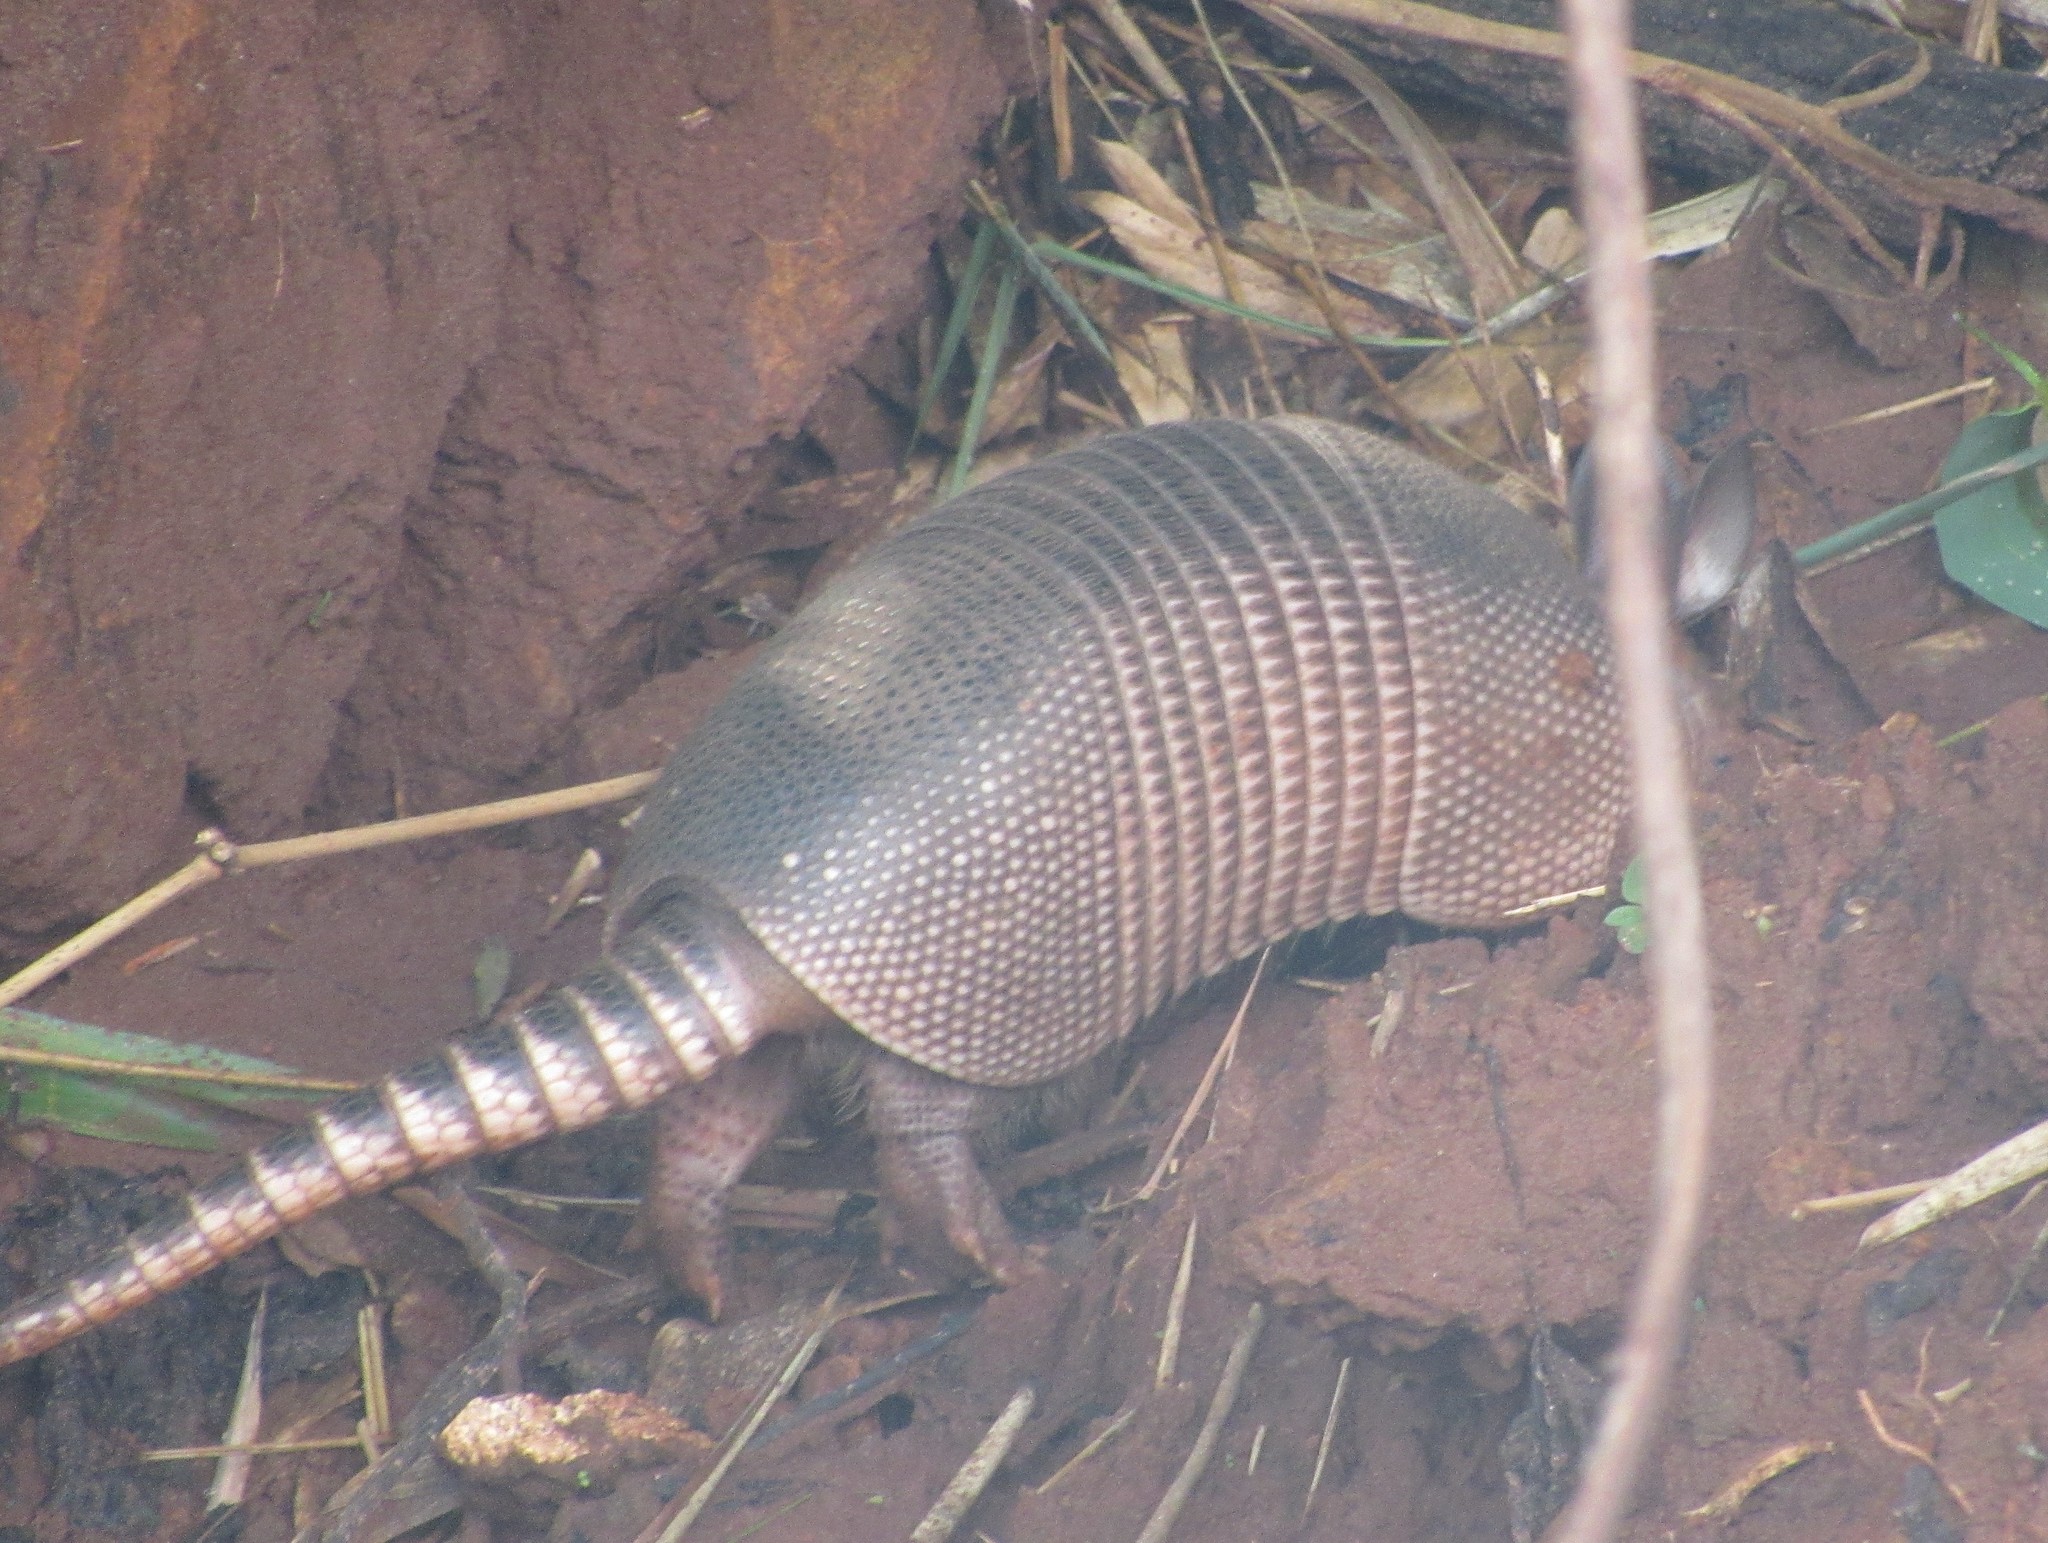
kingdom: Animalia
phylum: Chordata
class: Mammalia
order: Cingulata
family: Dasypodidae
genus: Dasypus
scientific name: Dasypus novemcinctus
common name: Nine-banded armadillo
